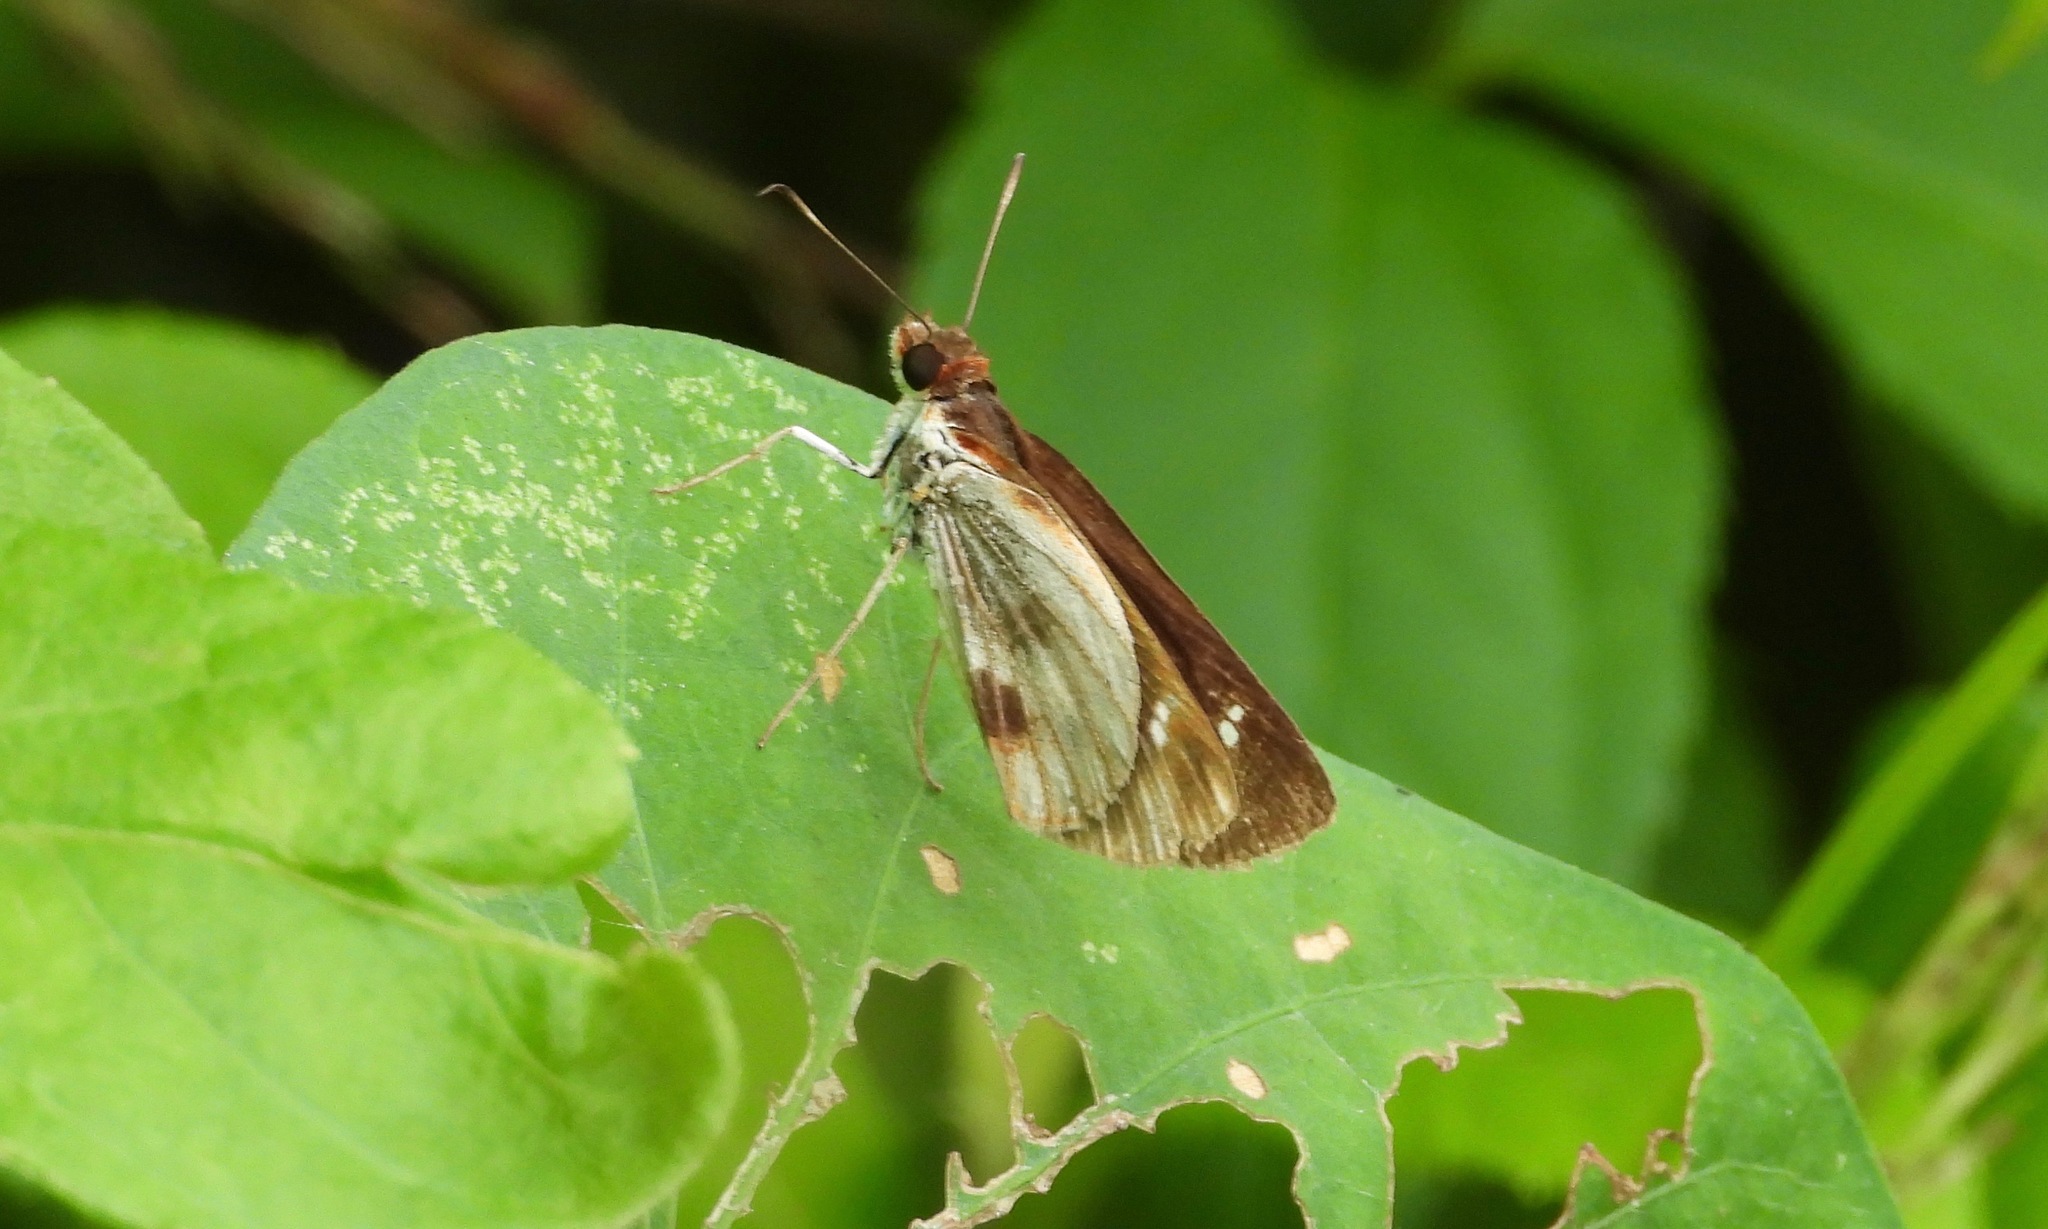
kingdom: Animalia
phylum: Arthropoda
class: Insecta
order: Lepidoptera
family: Hesperiidae
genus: Troyus
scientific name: Troyus fantasos
